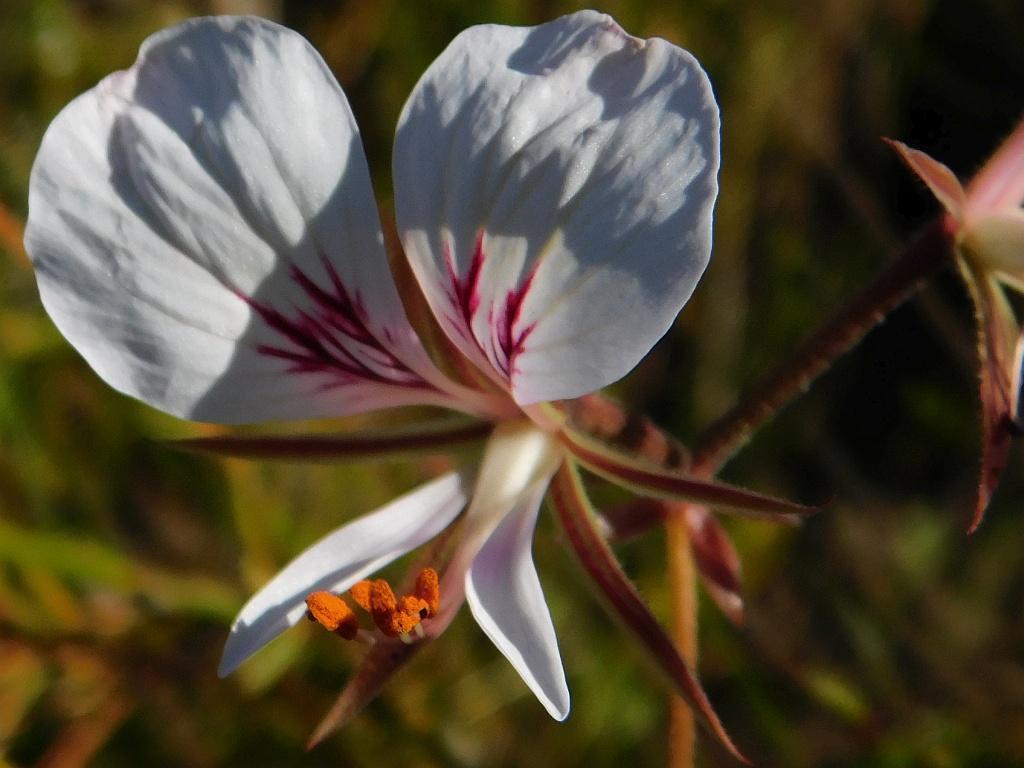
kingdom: Plantae
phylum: Tracheophyta
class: Magnoliopsida
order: Geraniales
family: Geraniaceae
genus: Pelargonium
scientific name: Pelargonium longicaule
